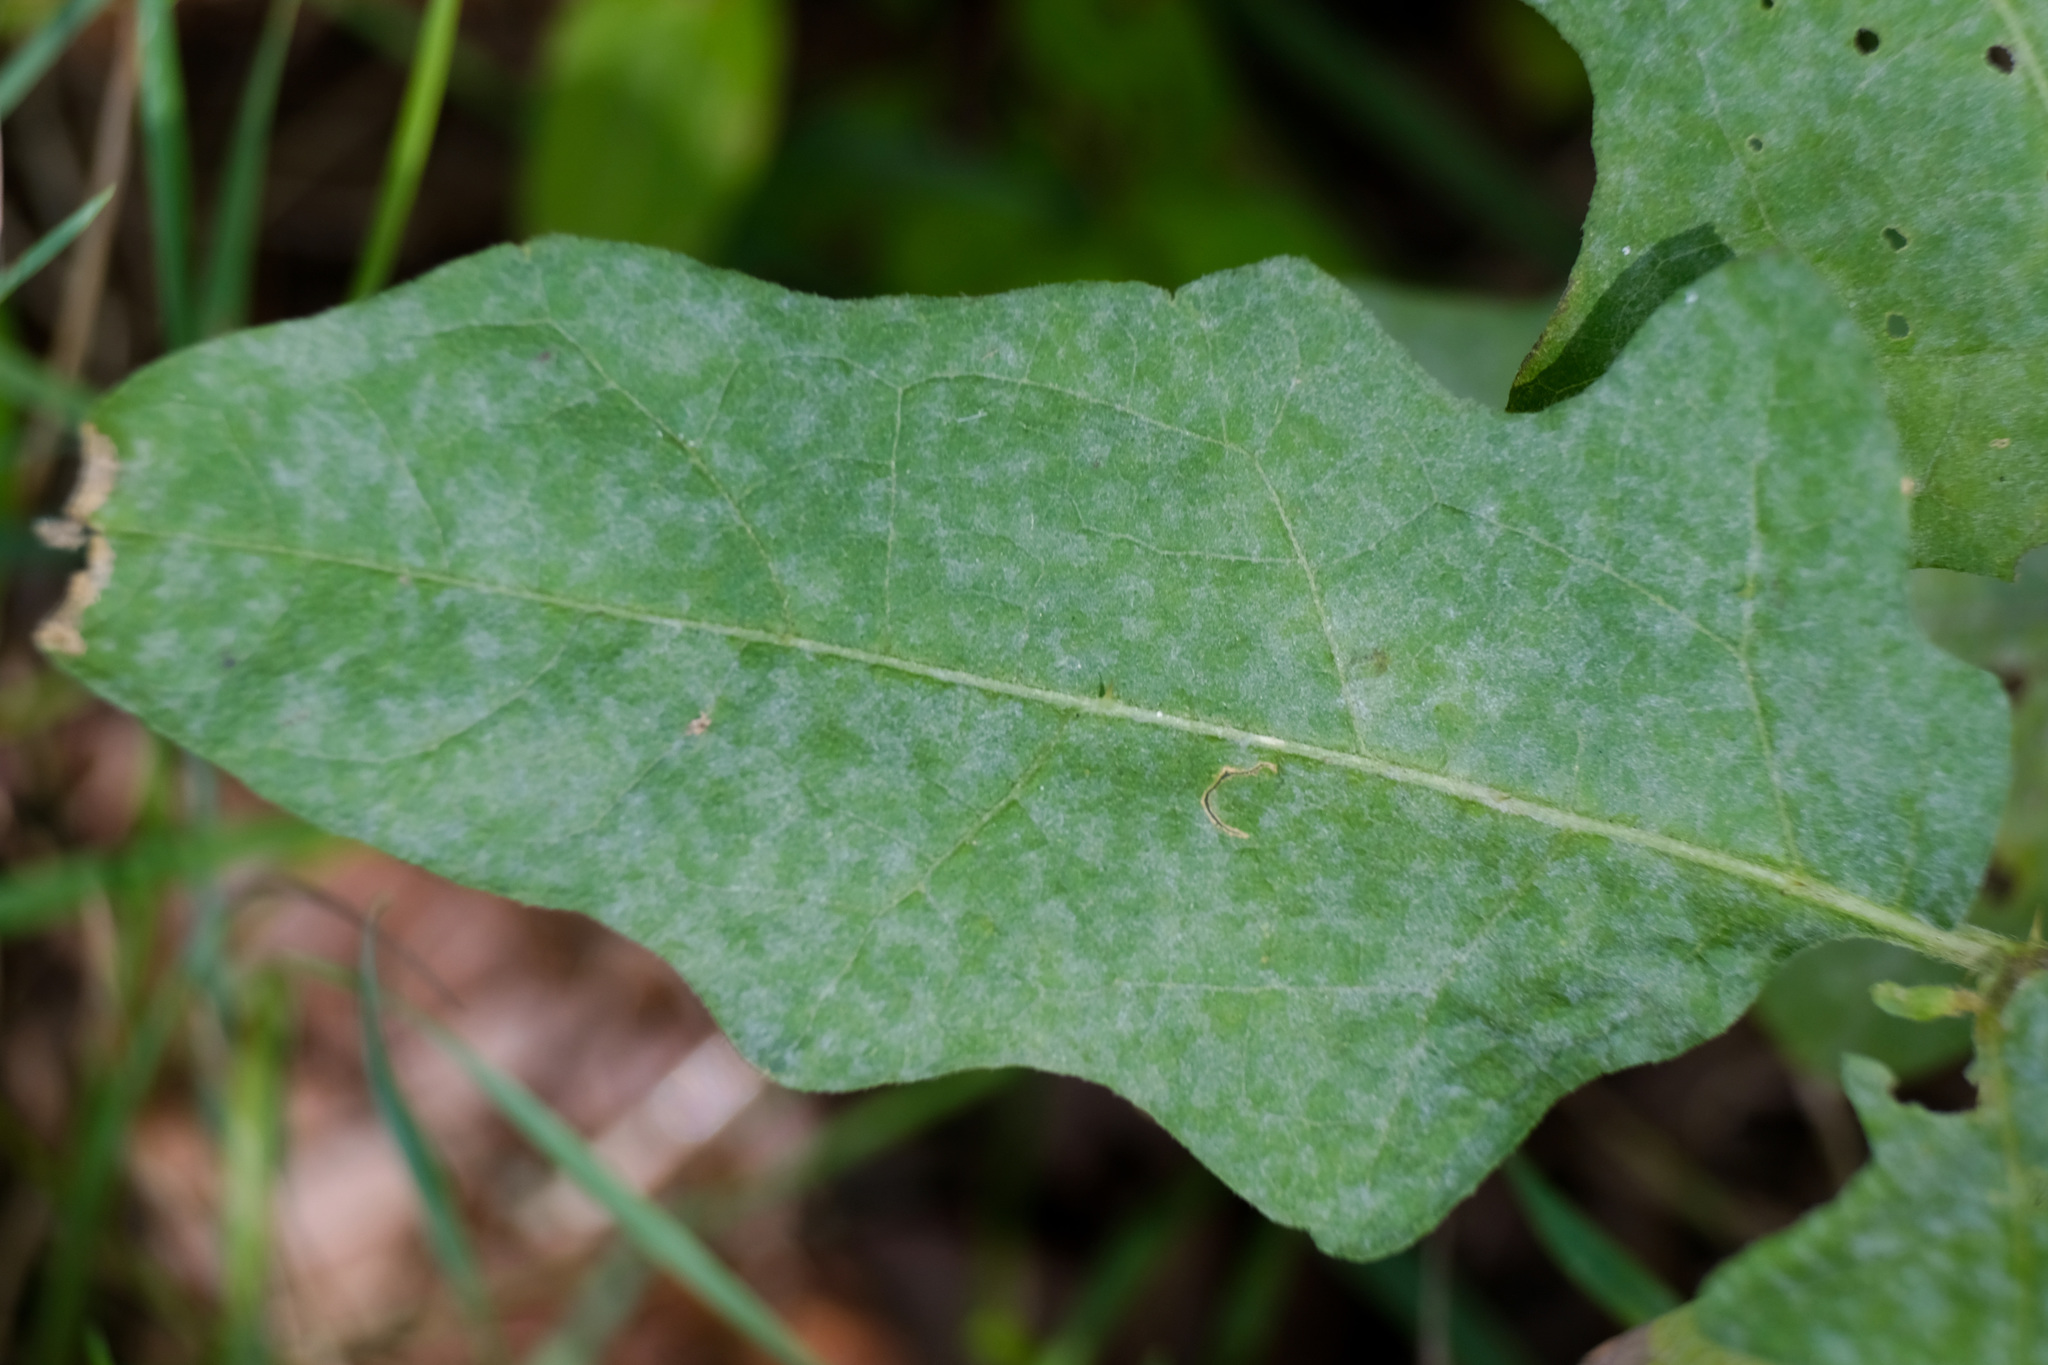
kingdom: Plantae
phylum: Tracheophyta
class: Magnoliopsida
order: Solanales
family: Solanaceae
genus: Solanum
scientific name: Solanum carolinense
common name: Horse-nettle
